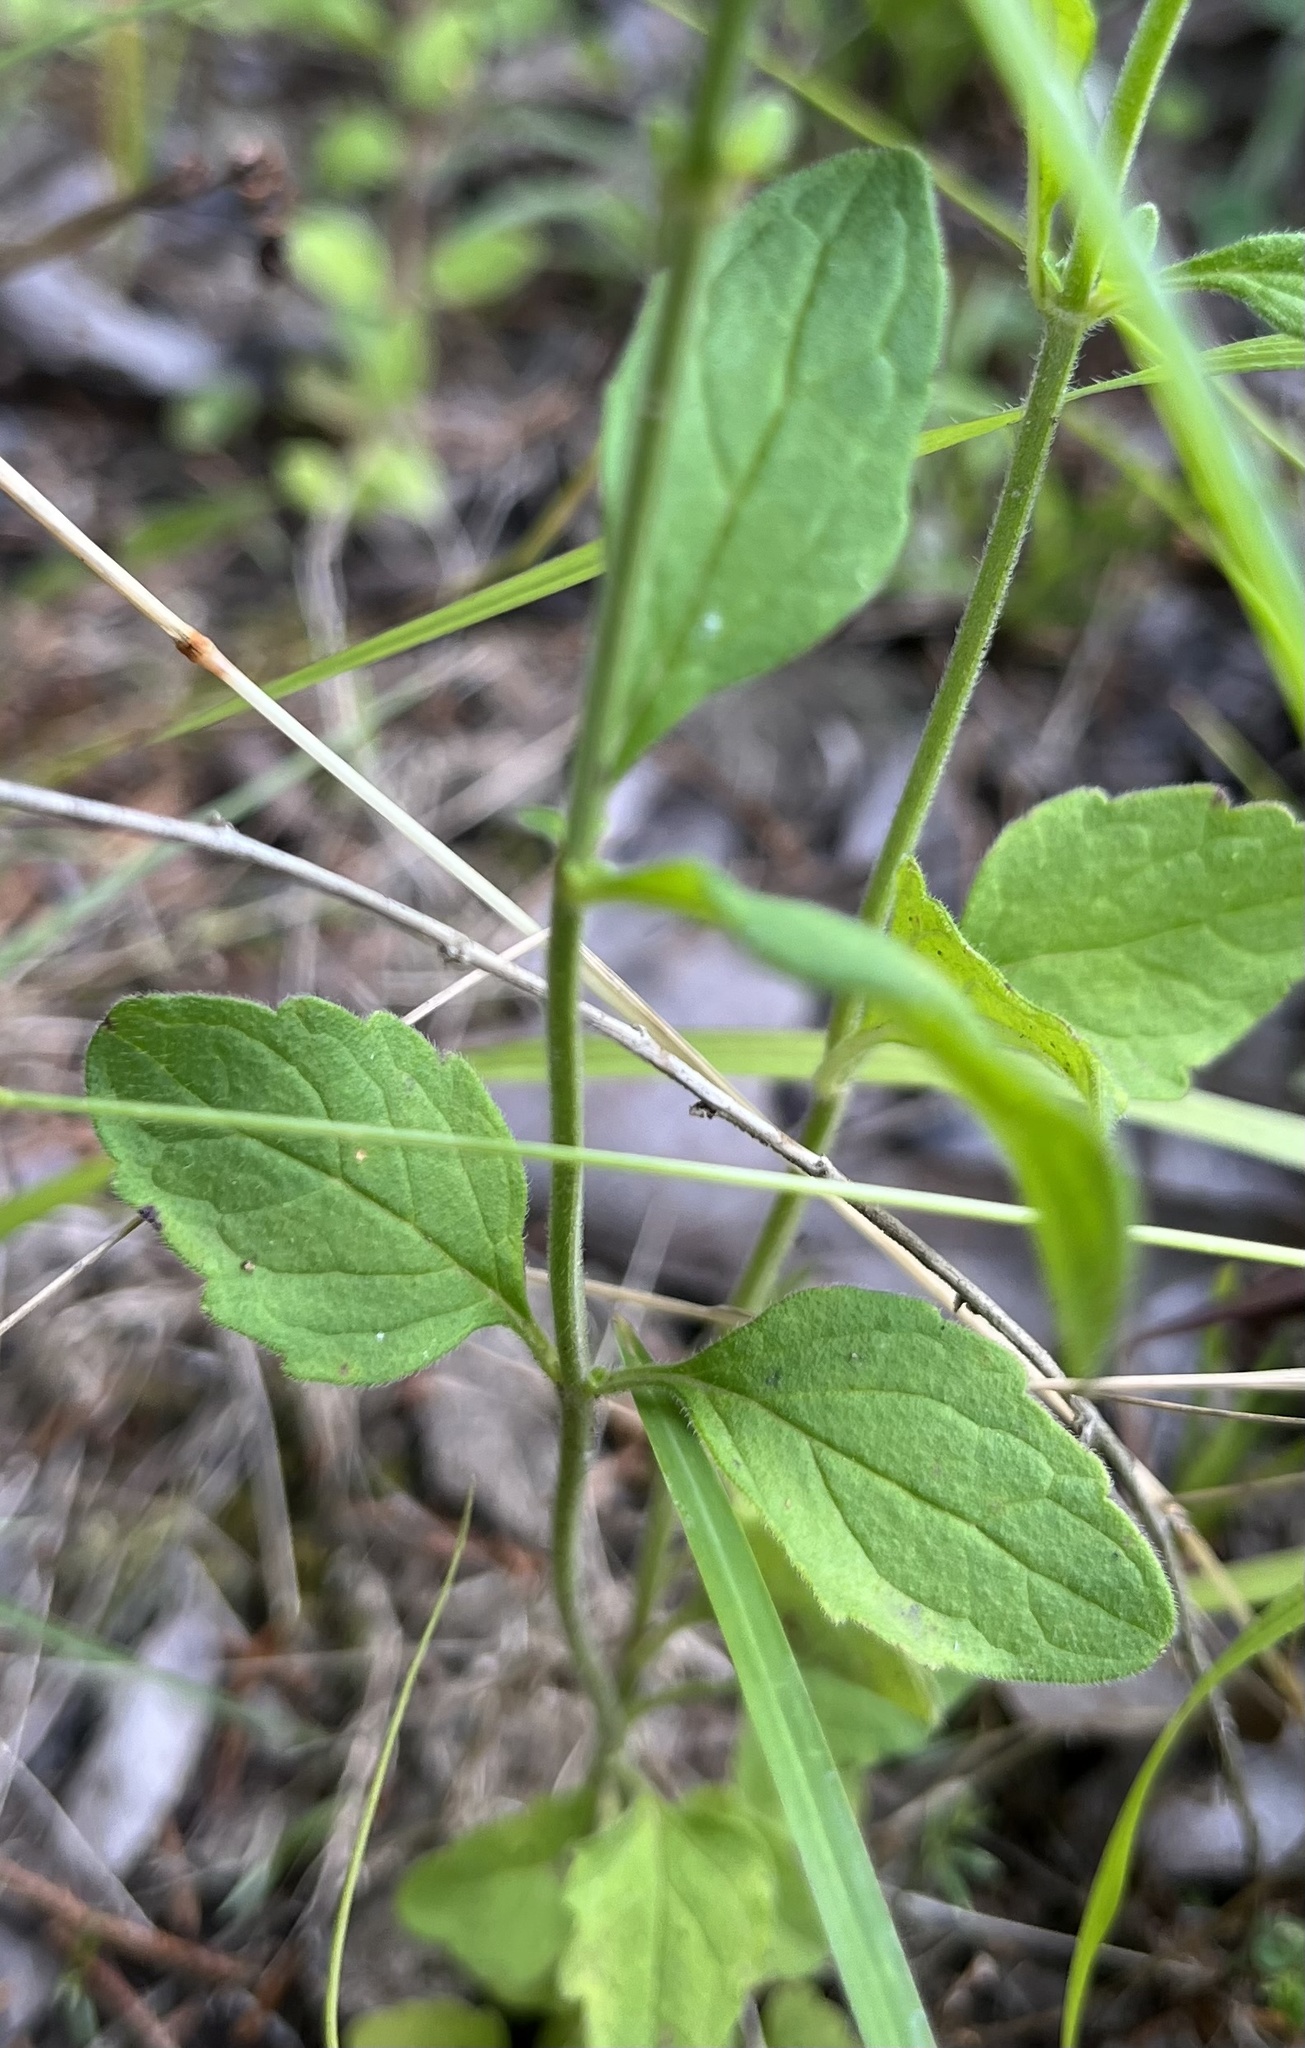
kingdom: Plantae
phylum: Tracheophyta
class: Magnoliopsida
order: Lamiales
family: Lamiaceae
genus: Scutellaria
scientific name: Scutellaria integrifolia
